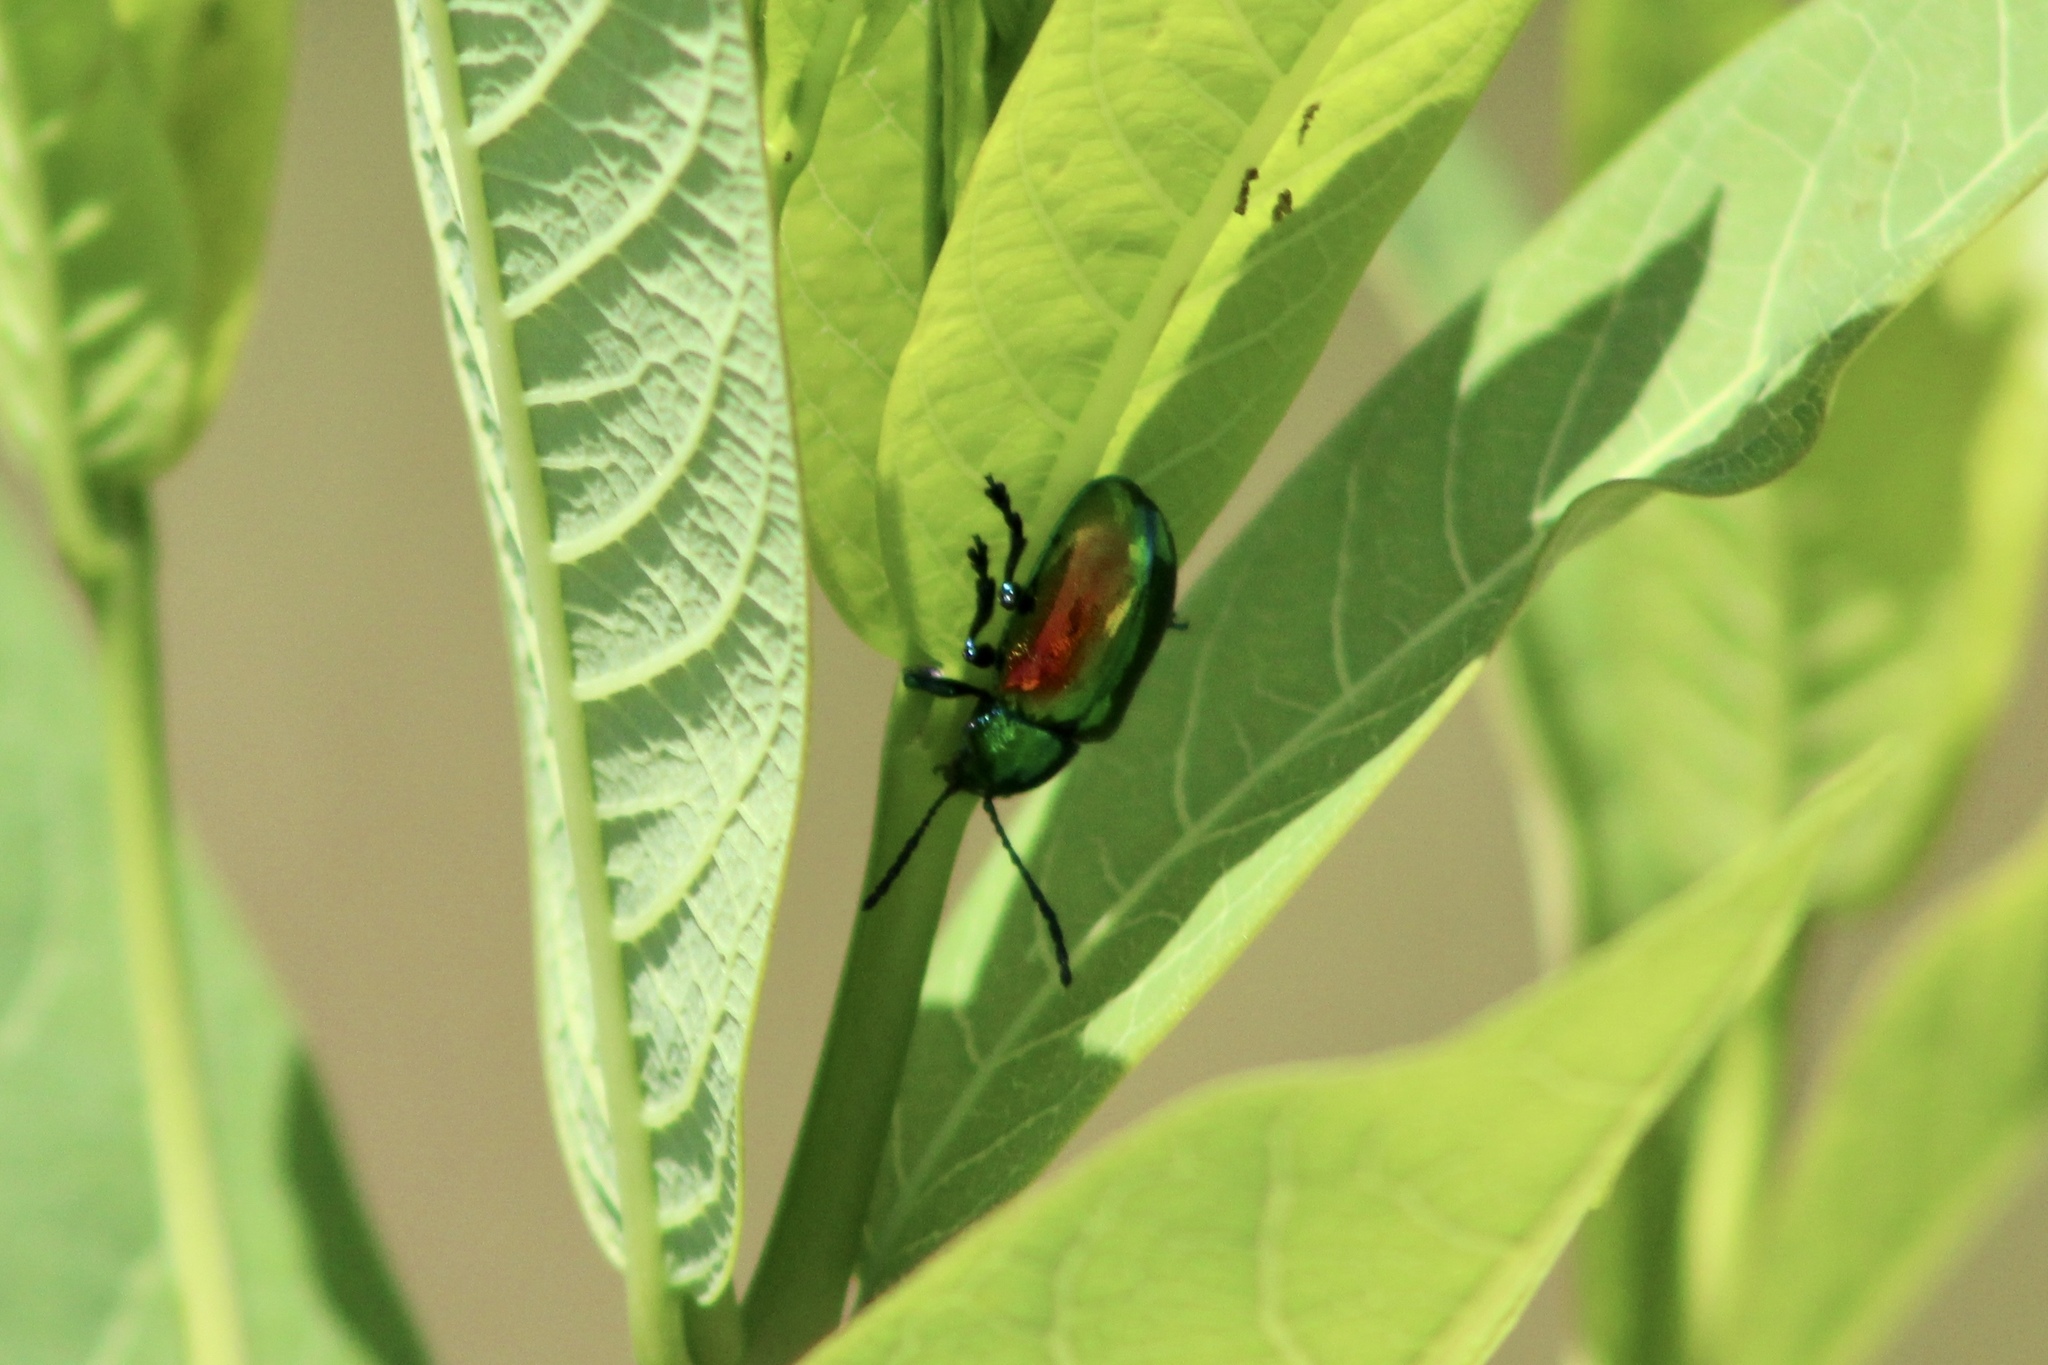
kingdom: Animalia
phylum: Arthropoda
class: Insecta
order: Coleoptera
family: Chrysomelidae
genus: Chrysochus
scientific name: Chrysochus auratus
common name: Dogbane leaf beetle
